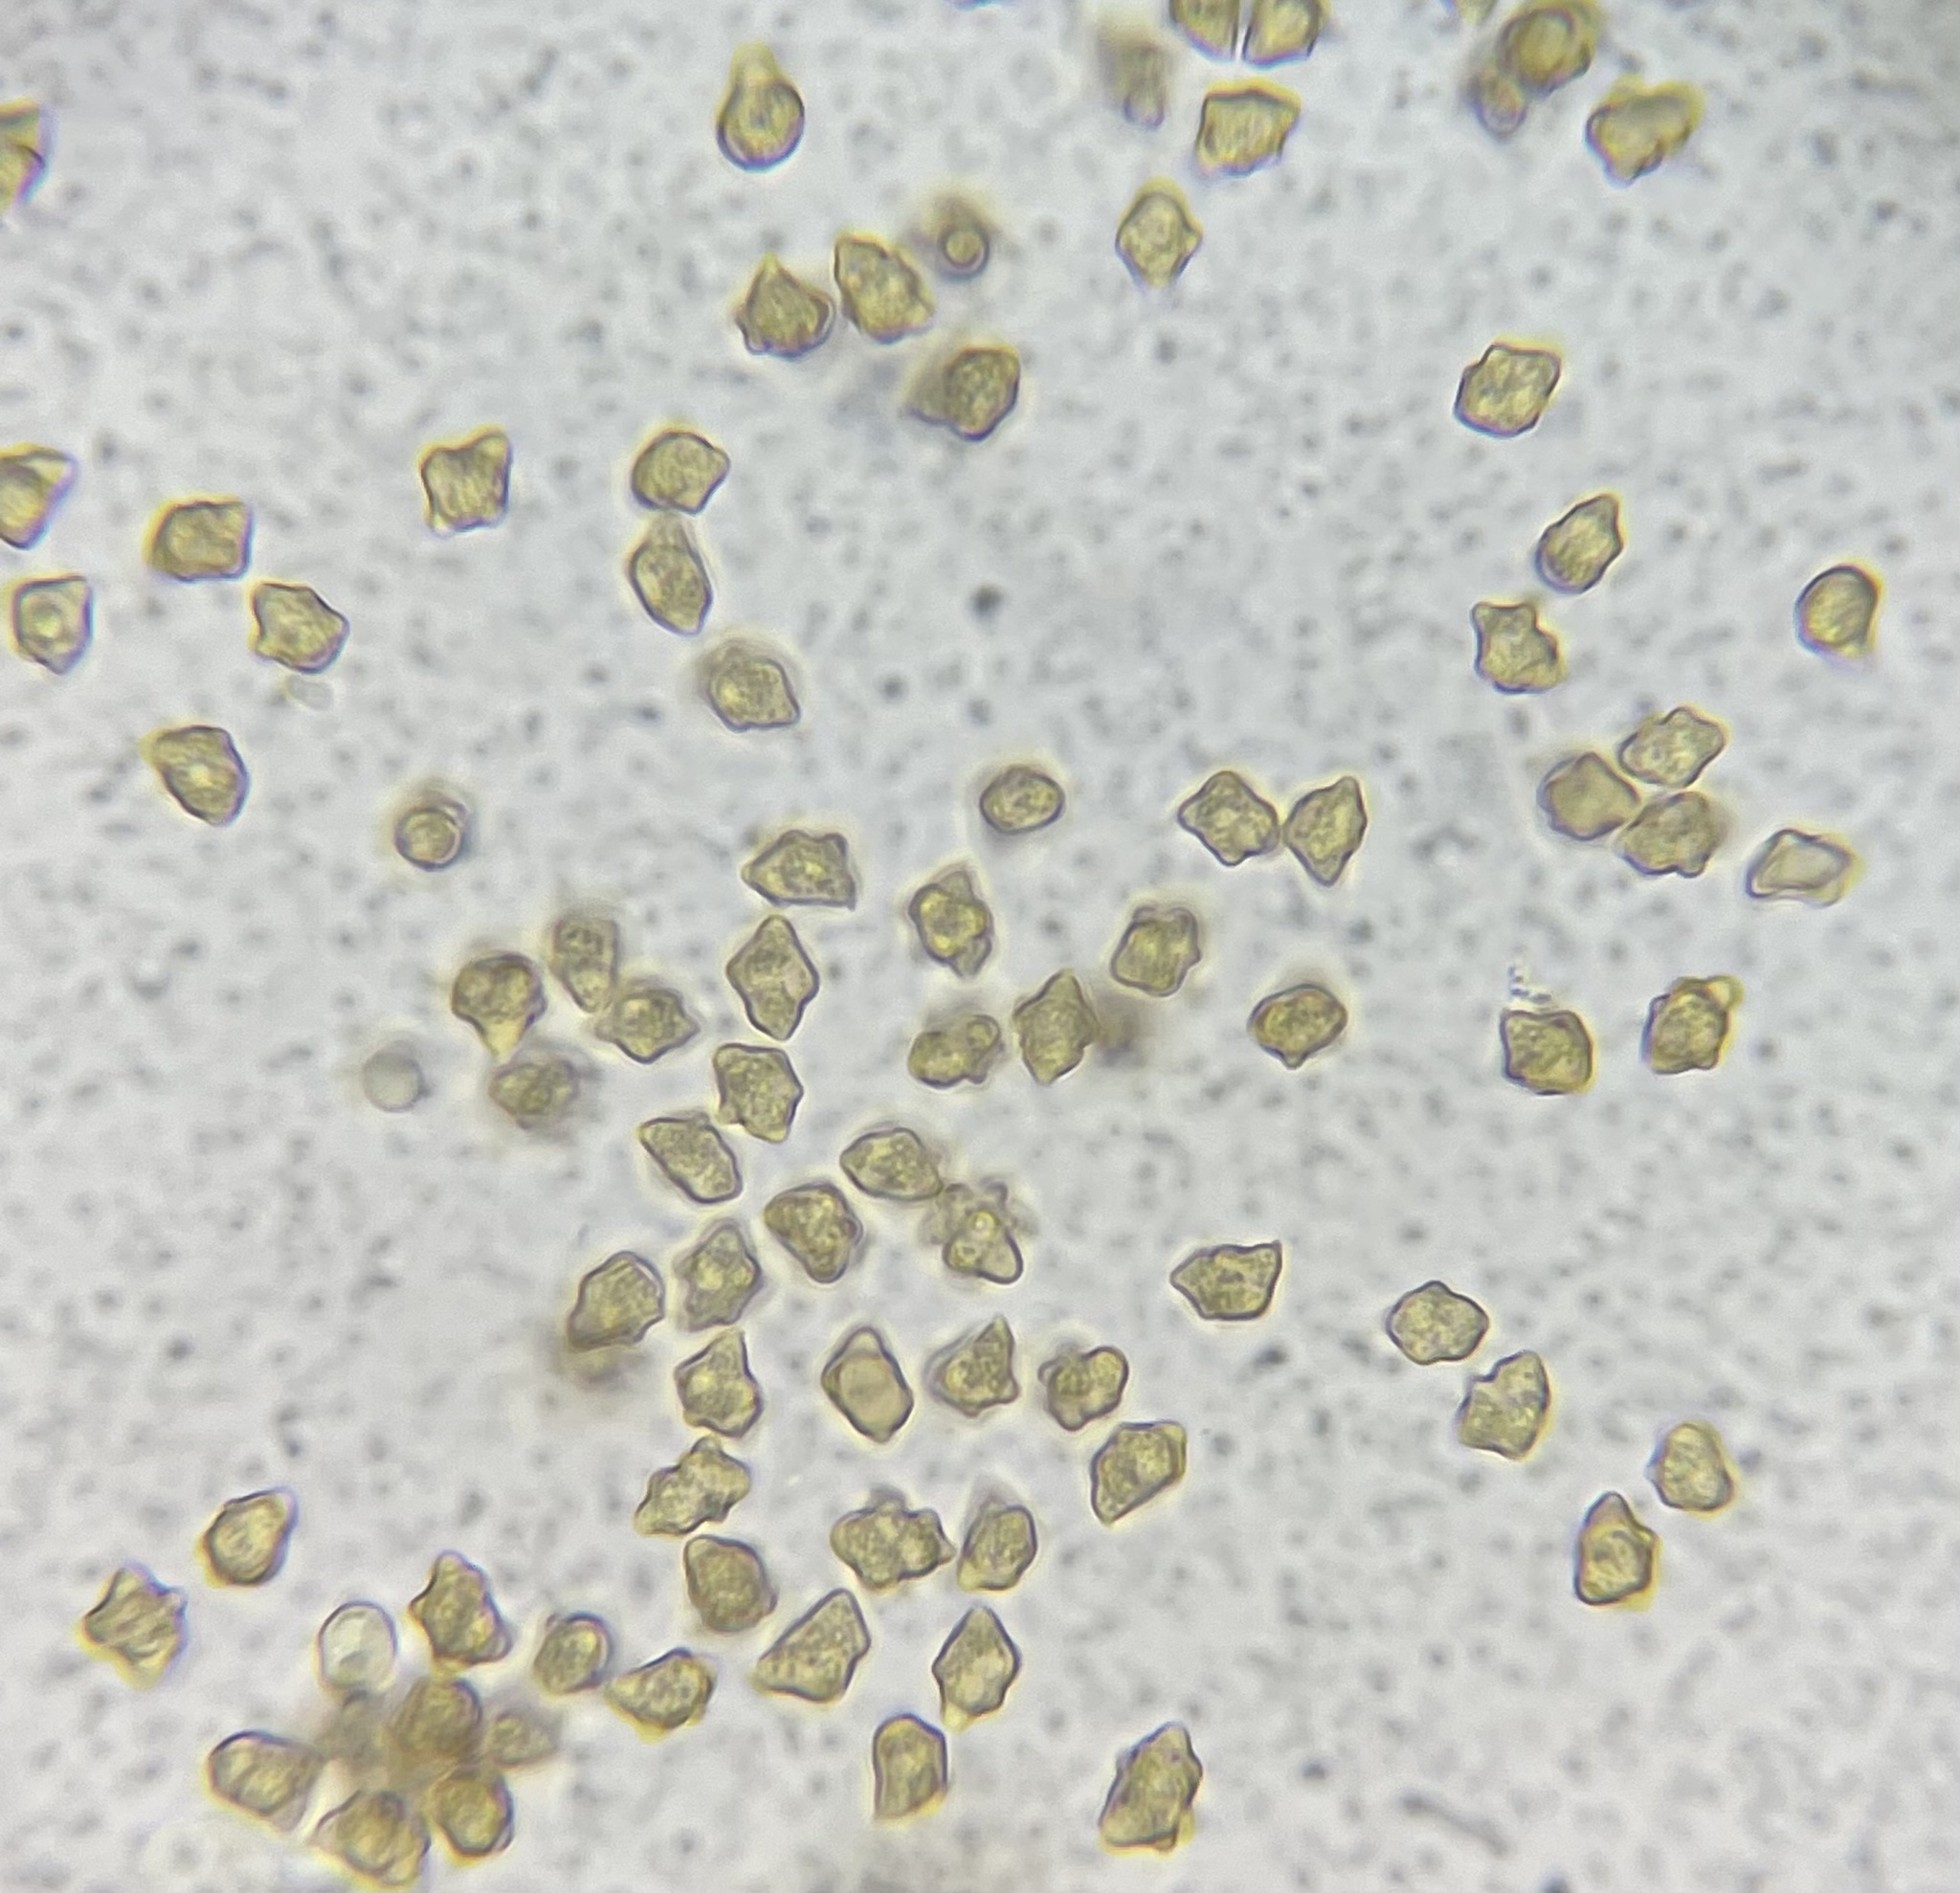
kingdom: Fungi
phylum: Basidiomycota
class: Agaricomycetes
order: Agaricales
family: Inocybaceae
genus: Inocybe
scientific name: Inocybe tubarioides
